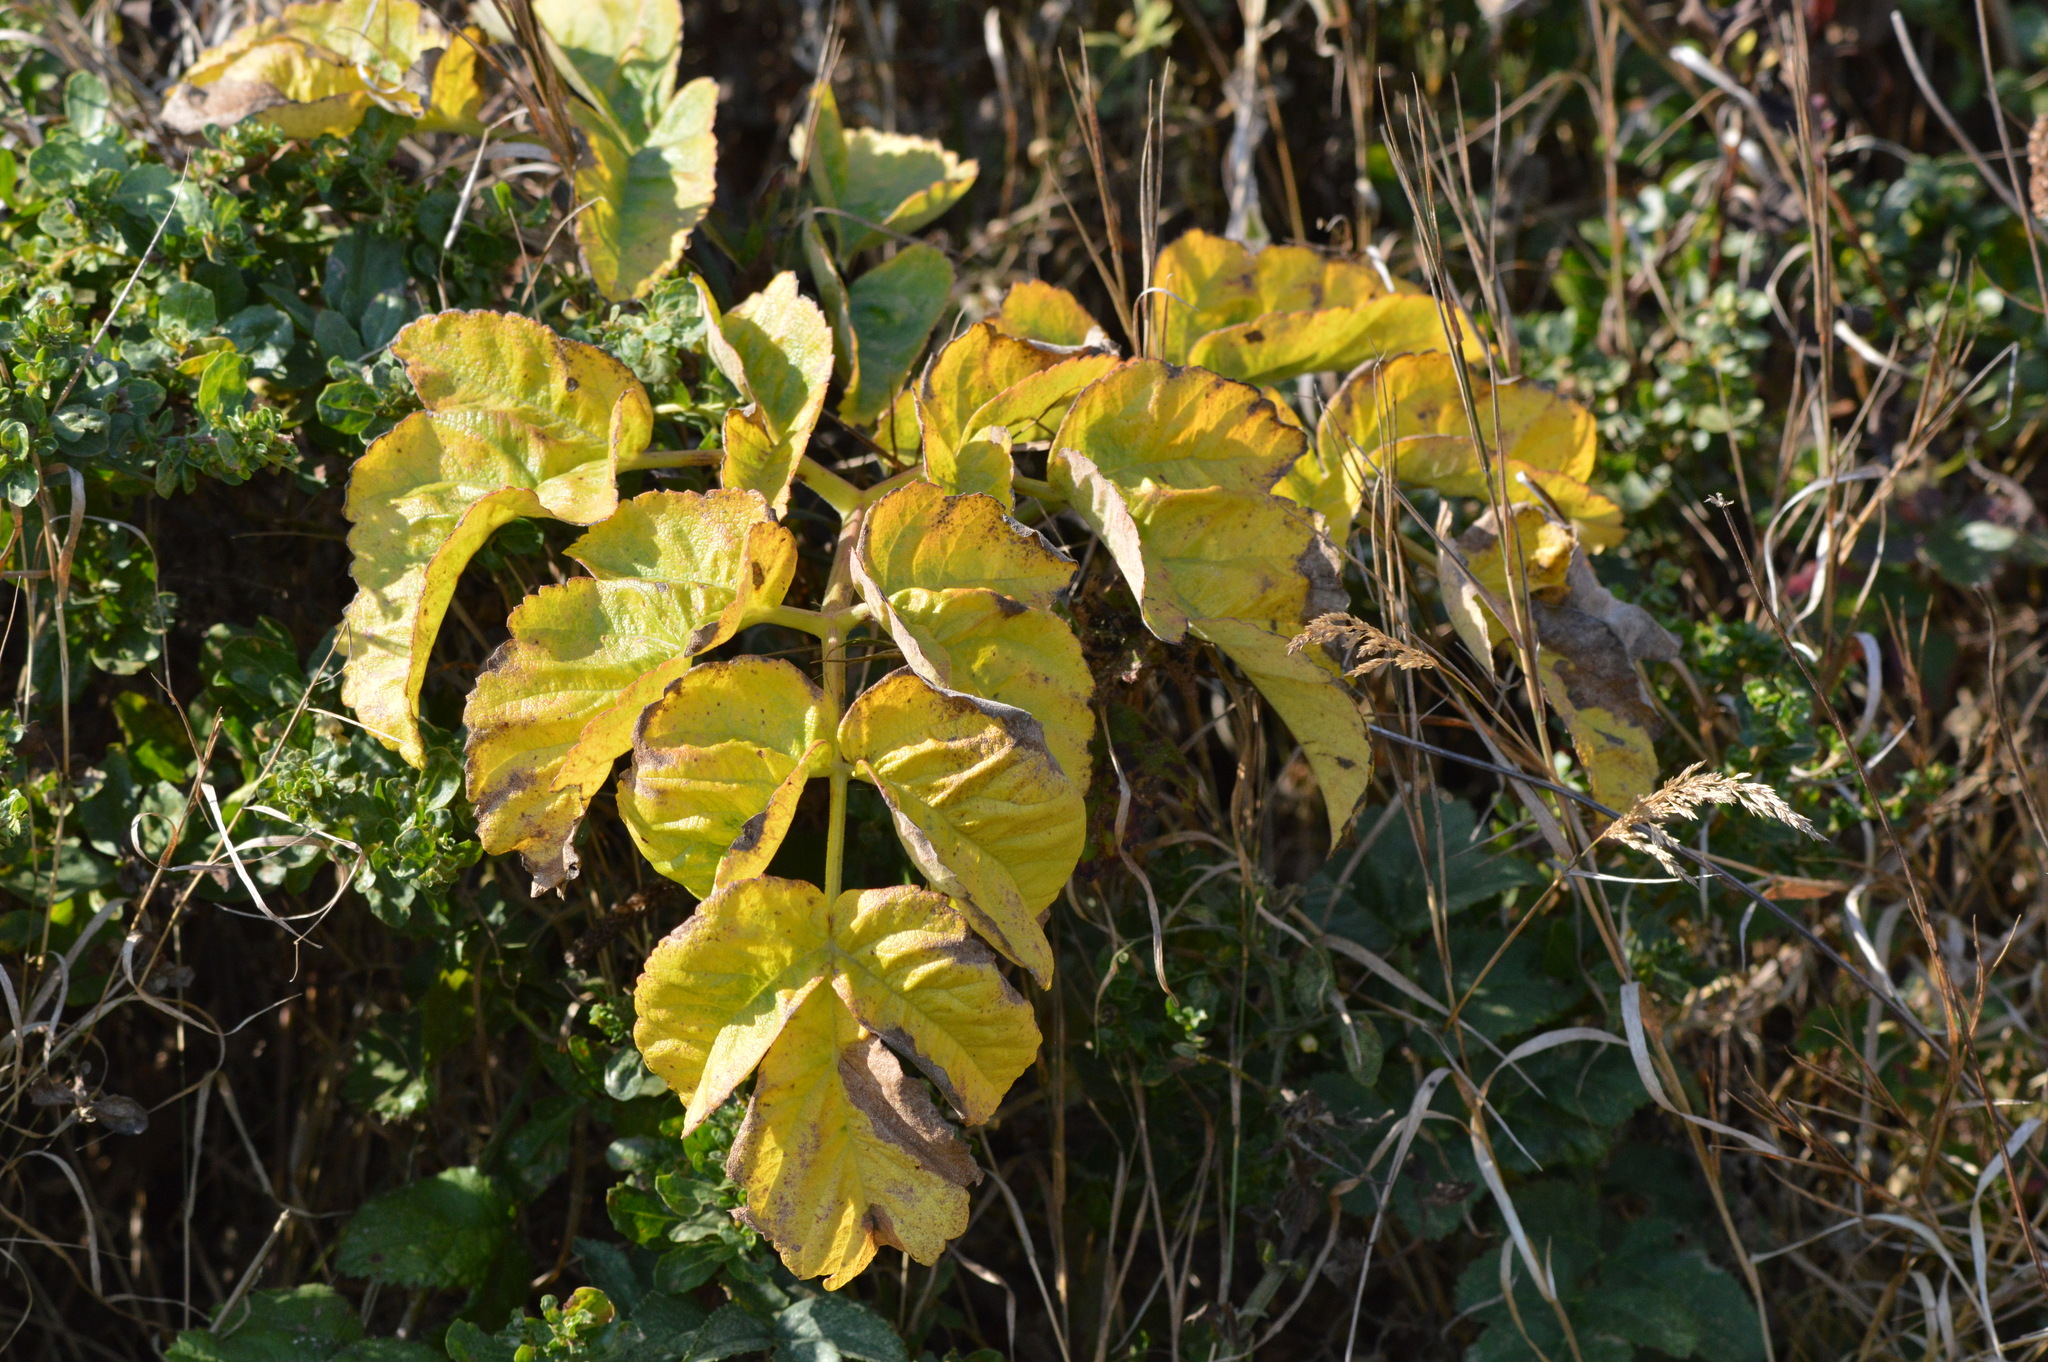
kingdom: Plantae
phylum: Tracheophyta
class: Magnoliopsida
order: Lamiales
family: Phrymaceae
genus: Diplacus
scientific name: Diplacus aurantiacus
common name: Bush monkey-flower
